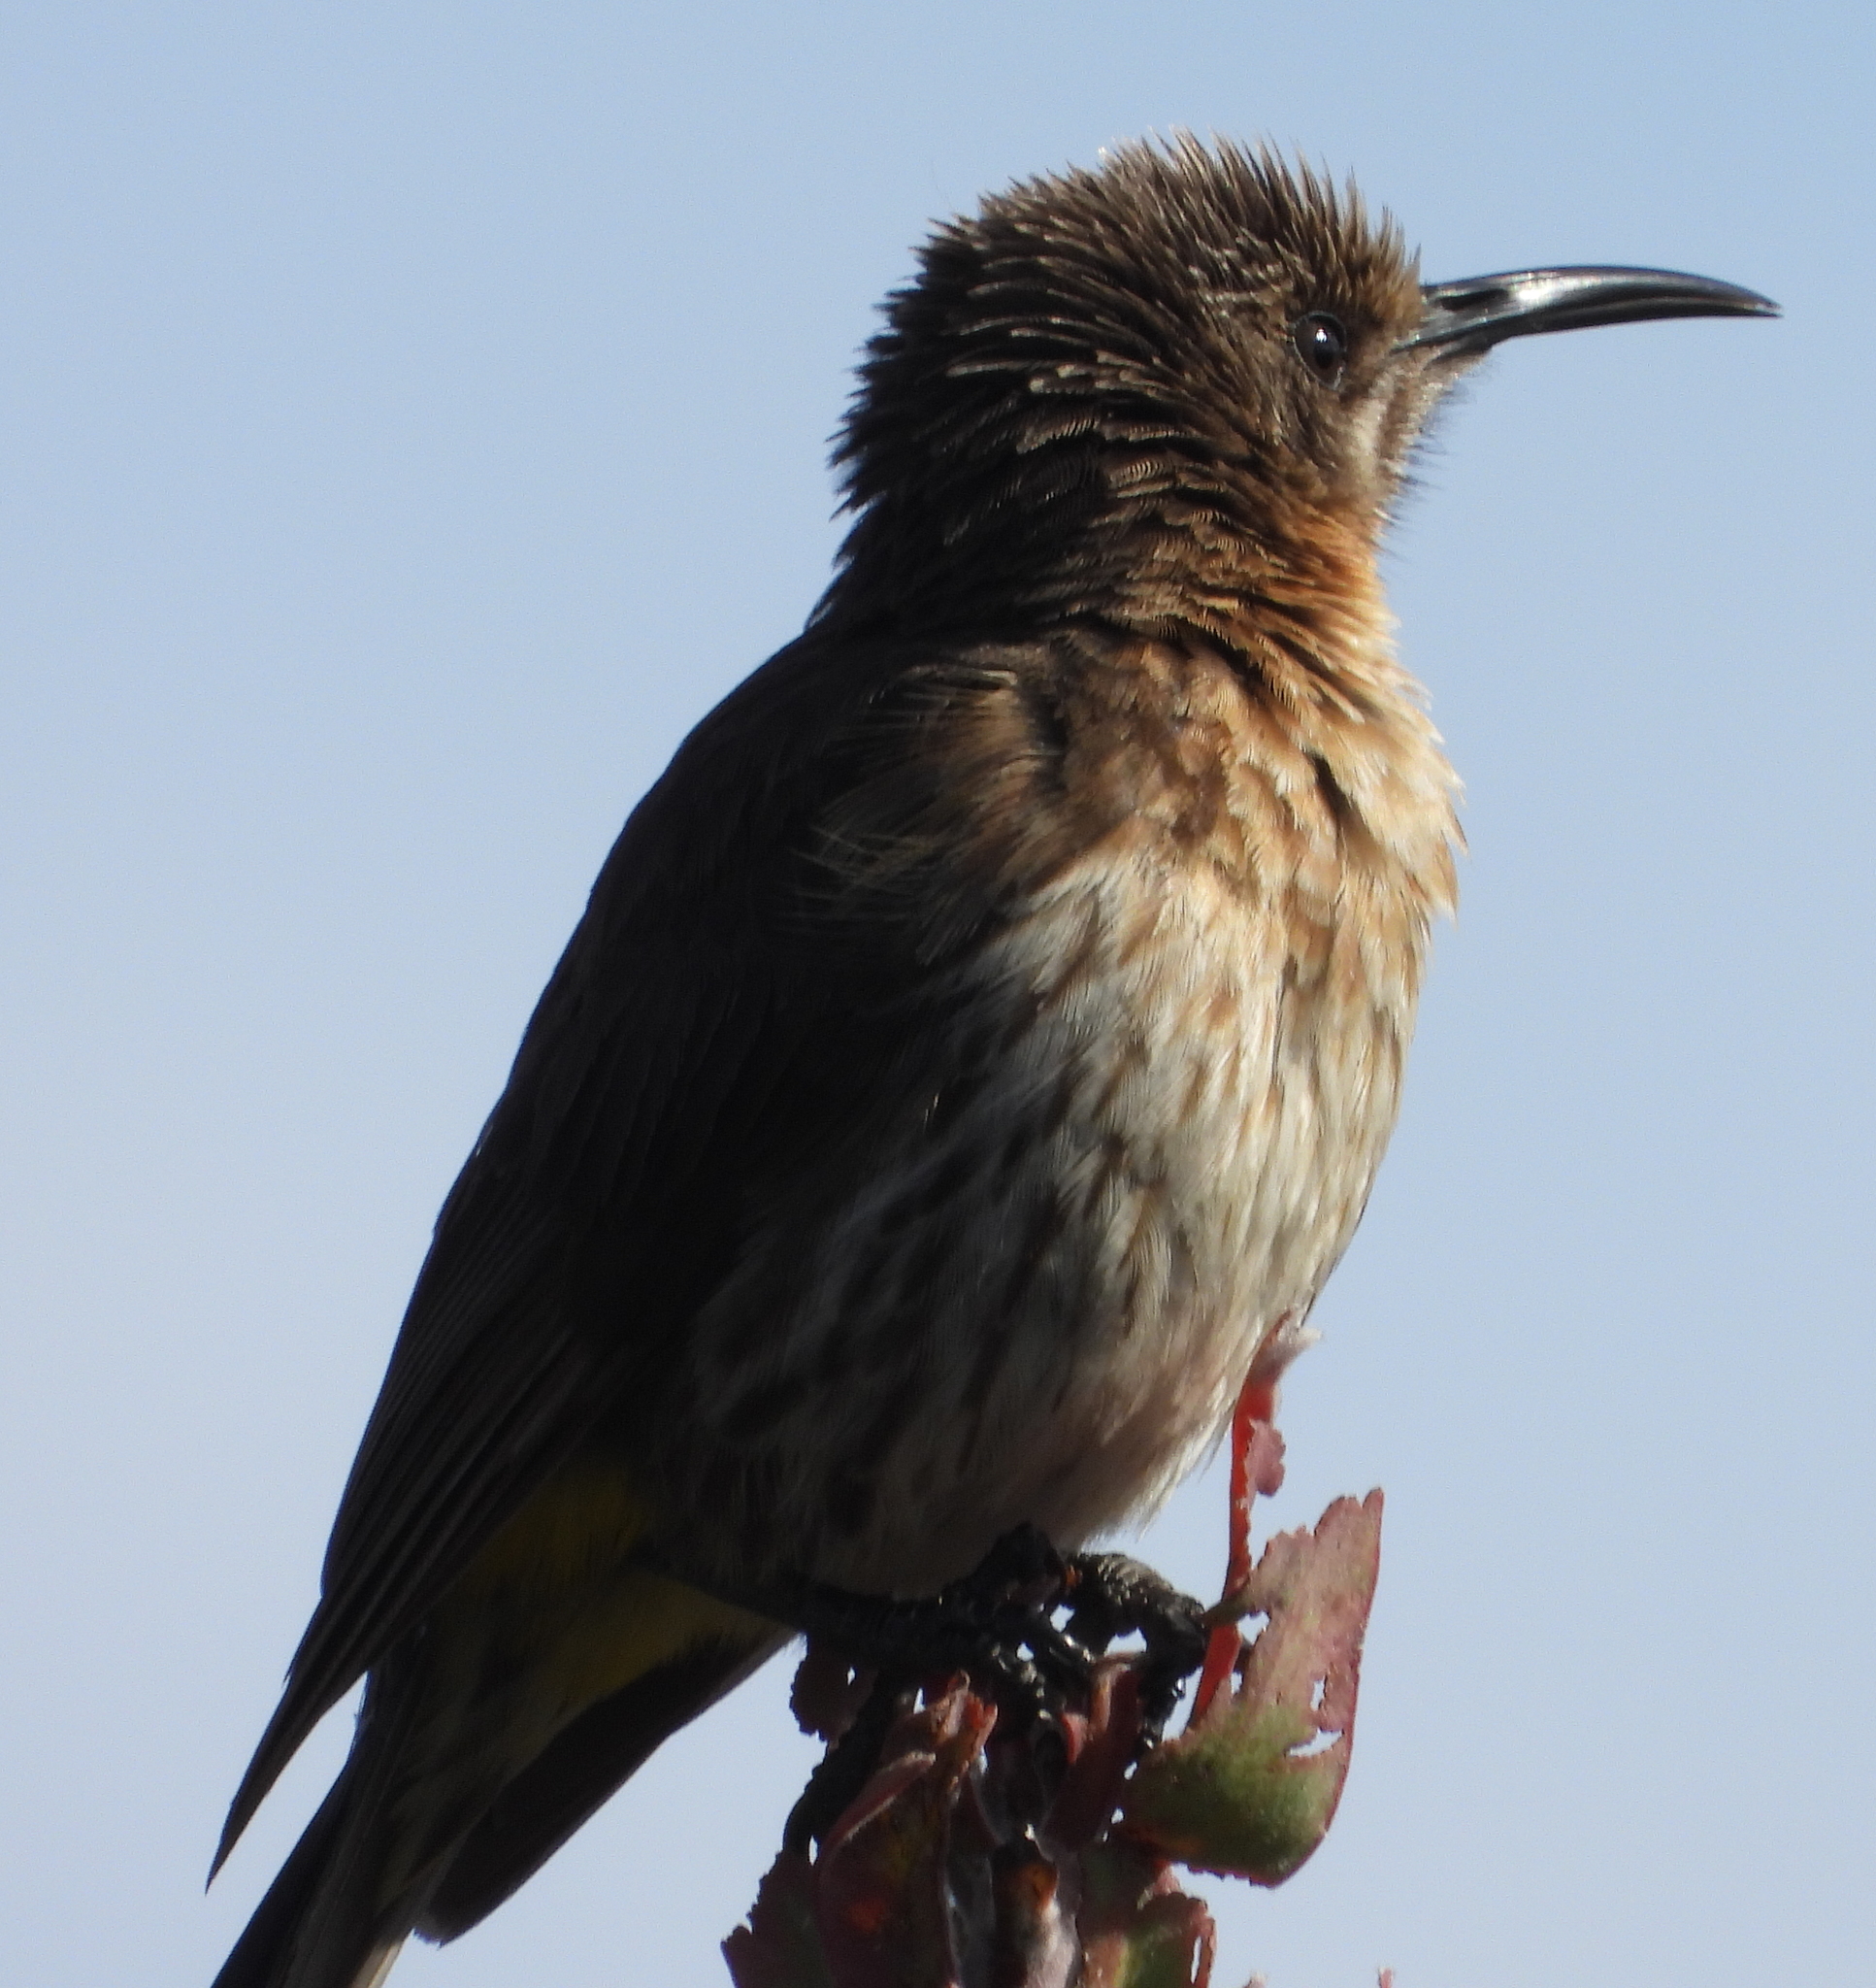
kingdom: Animalia
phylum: Chordata
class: Aves
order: Passeriformes
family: Promeropidae
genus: Promerops
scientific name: Promerops cafer
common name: Cape sugarbird
